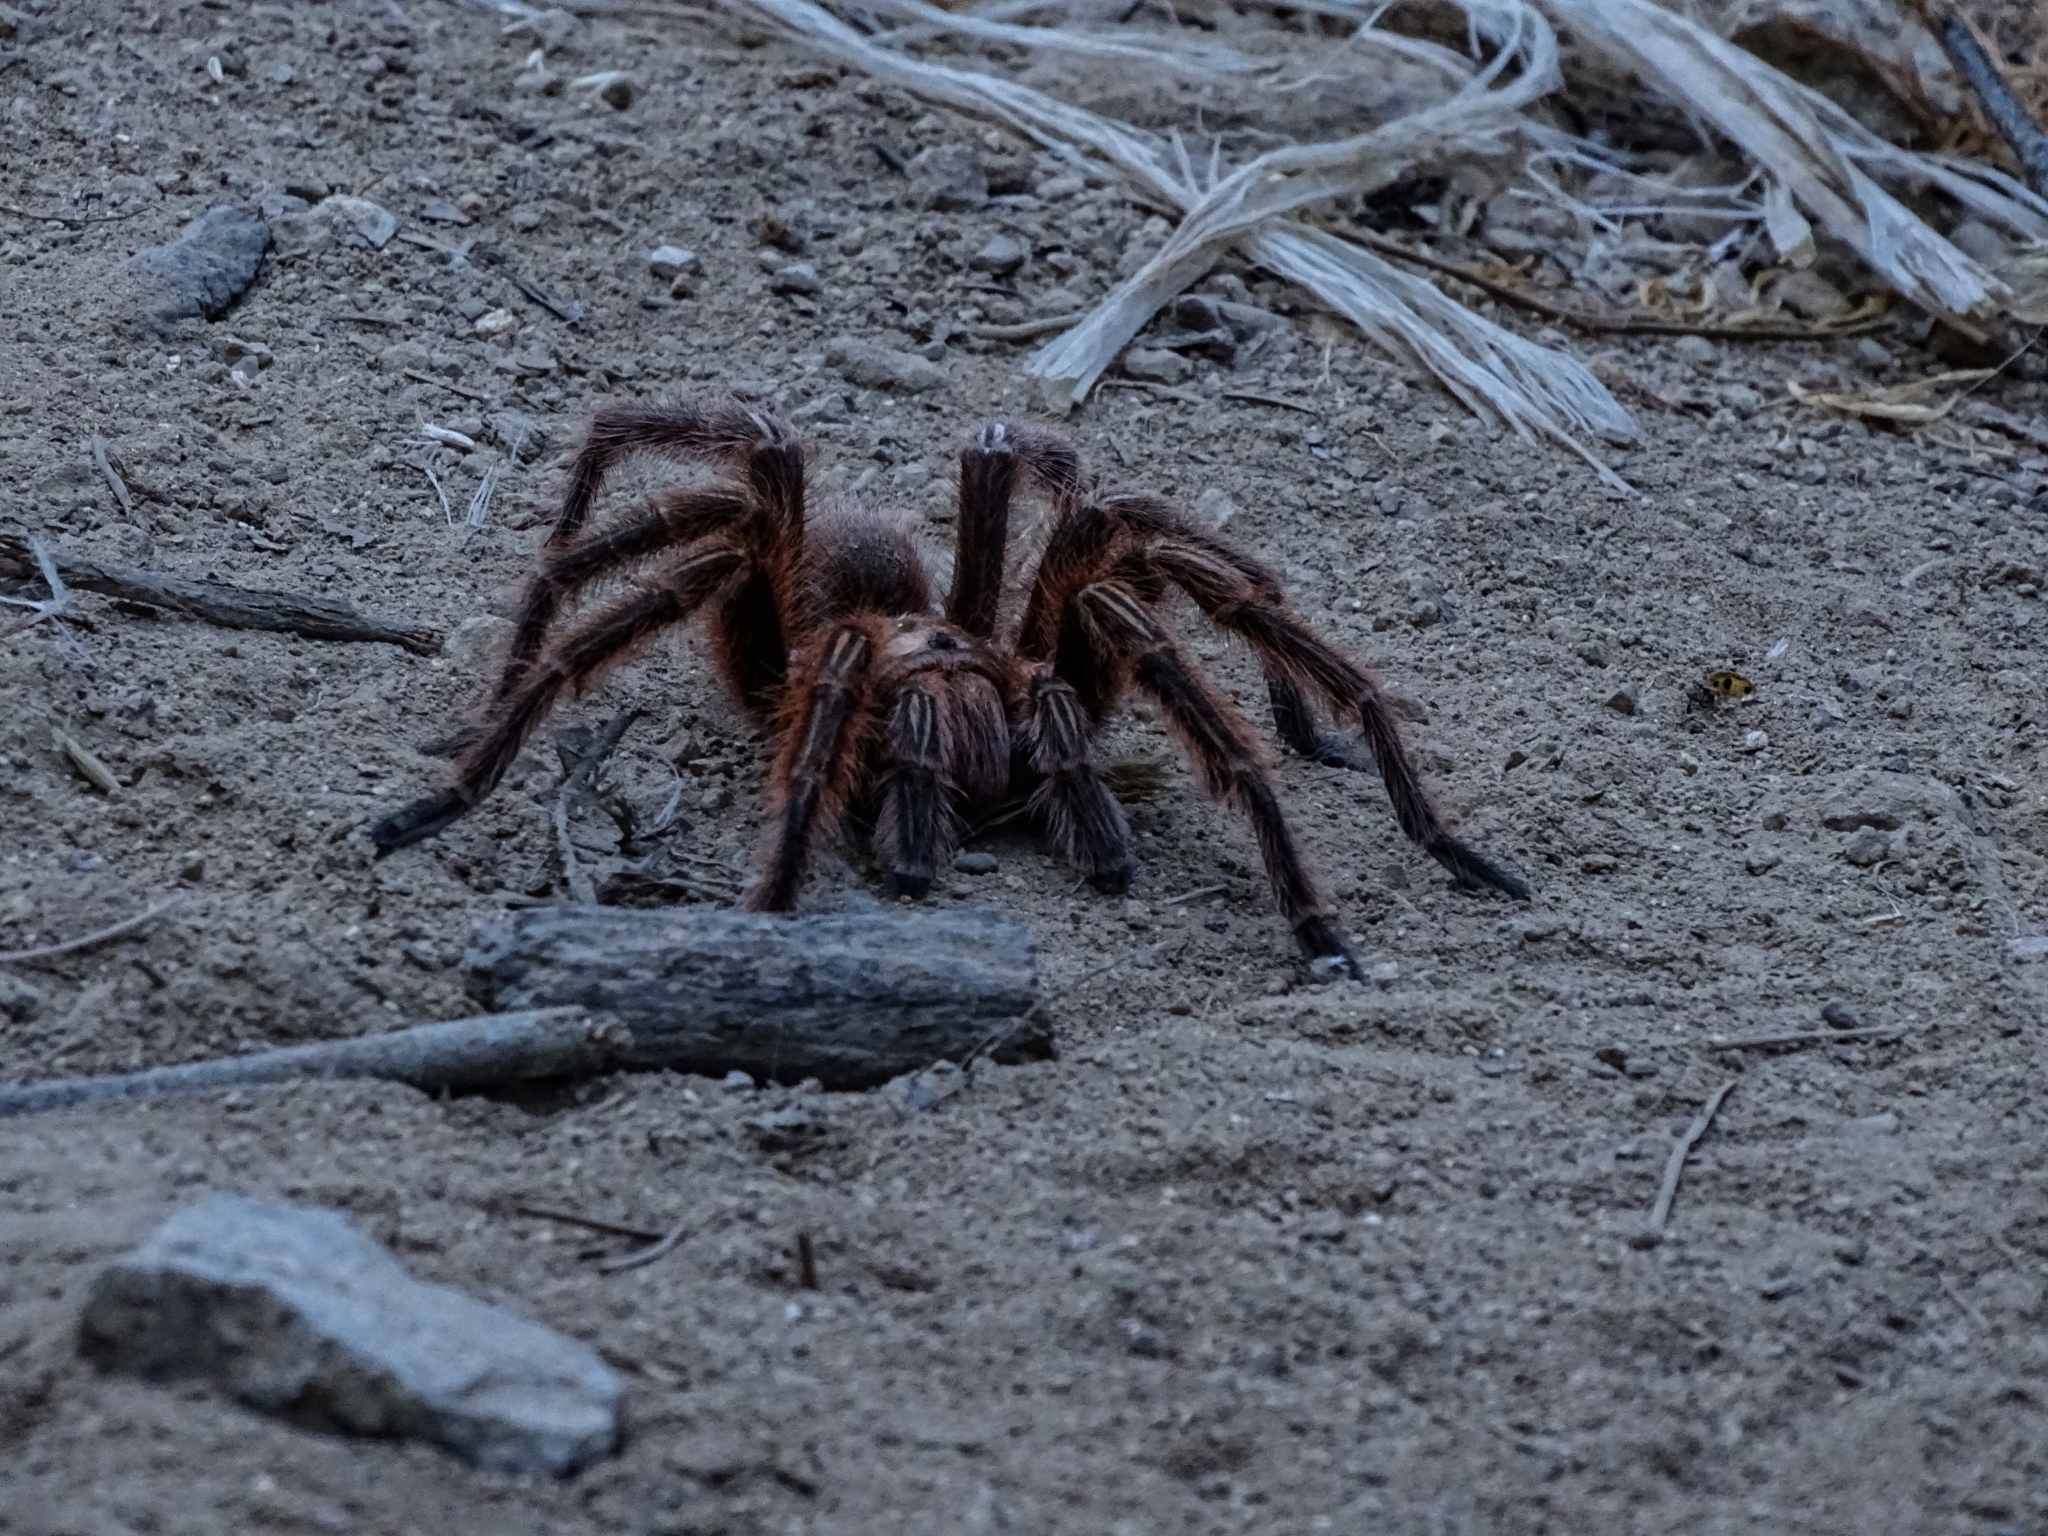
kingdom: Animalia
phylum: Arthropoda
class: Arachnida
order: Araneae
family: Theraphosidae
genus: Grammostola
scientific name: Grammostola rosea
